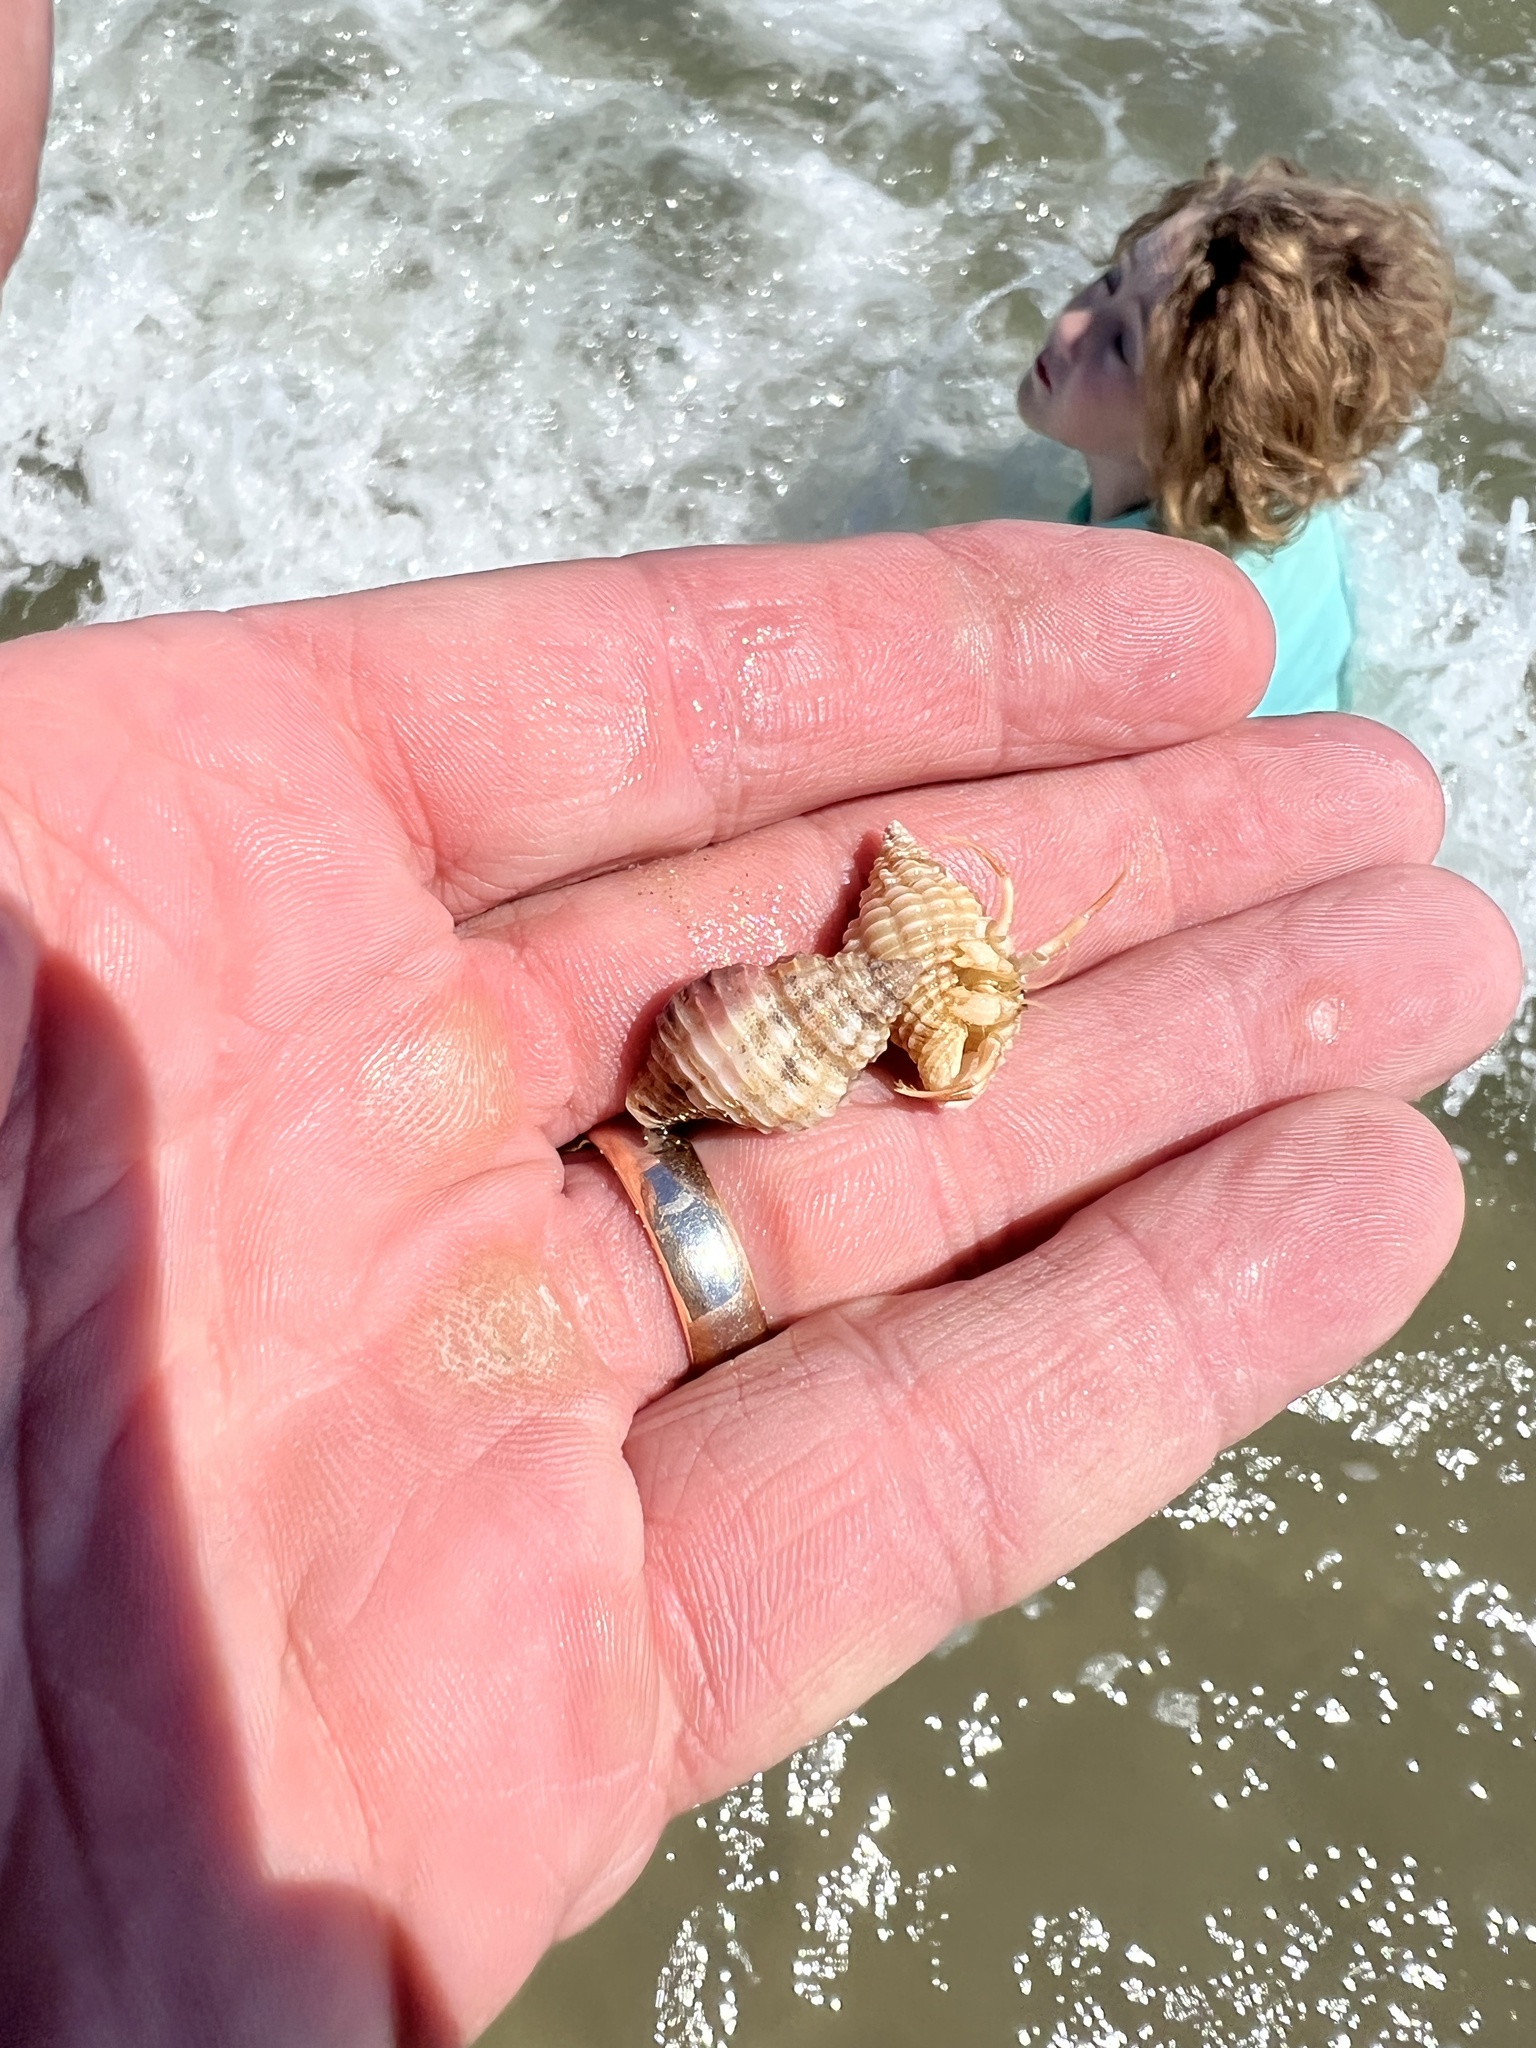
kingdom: Animalia
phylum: Mollusca
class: Gastropoda
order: Neogastropoda
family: Pisaniidae
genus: Solenosteira
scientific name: Solenosteira cancellaria
